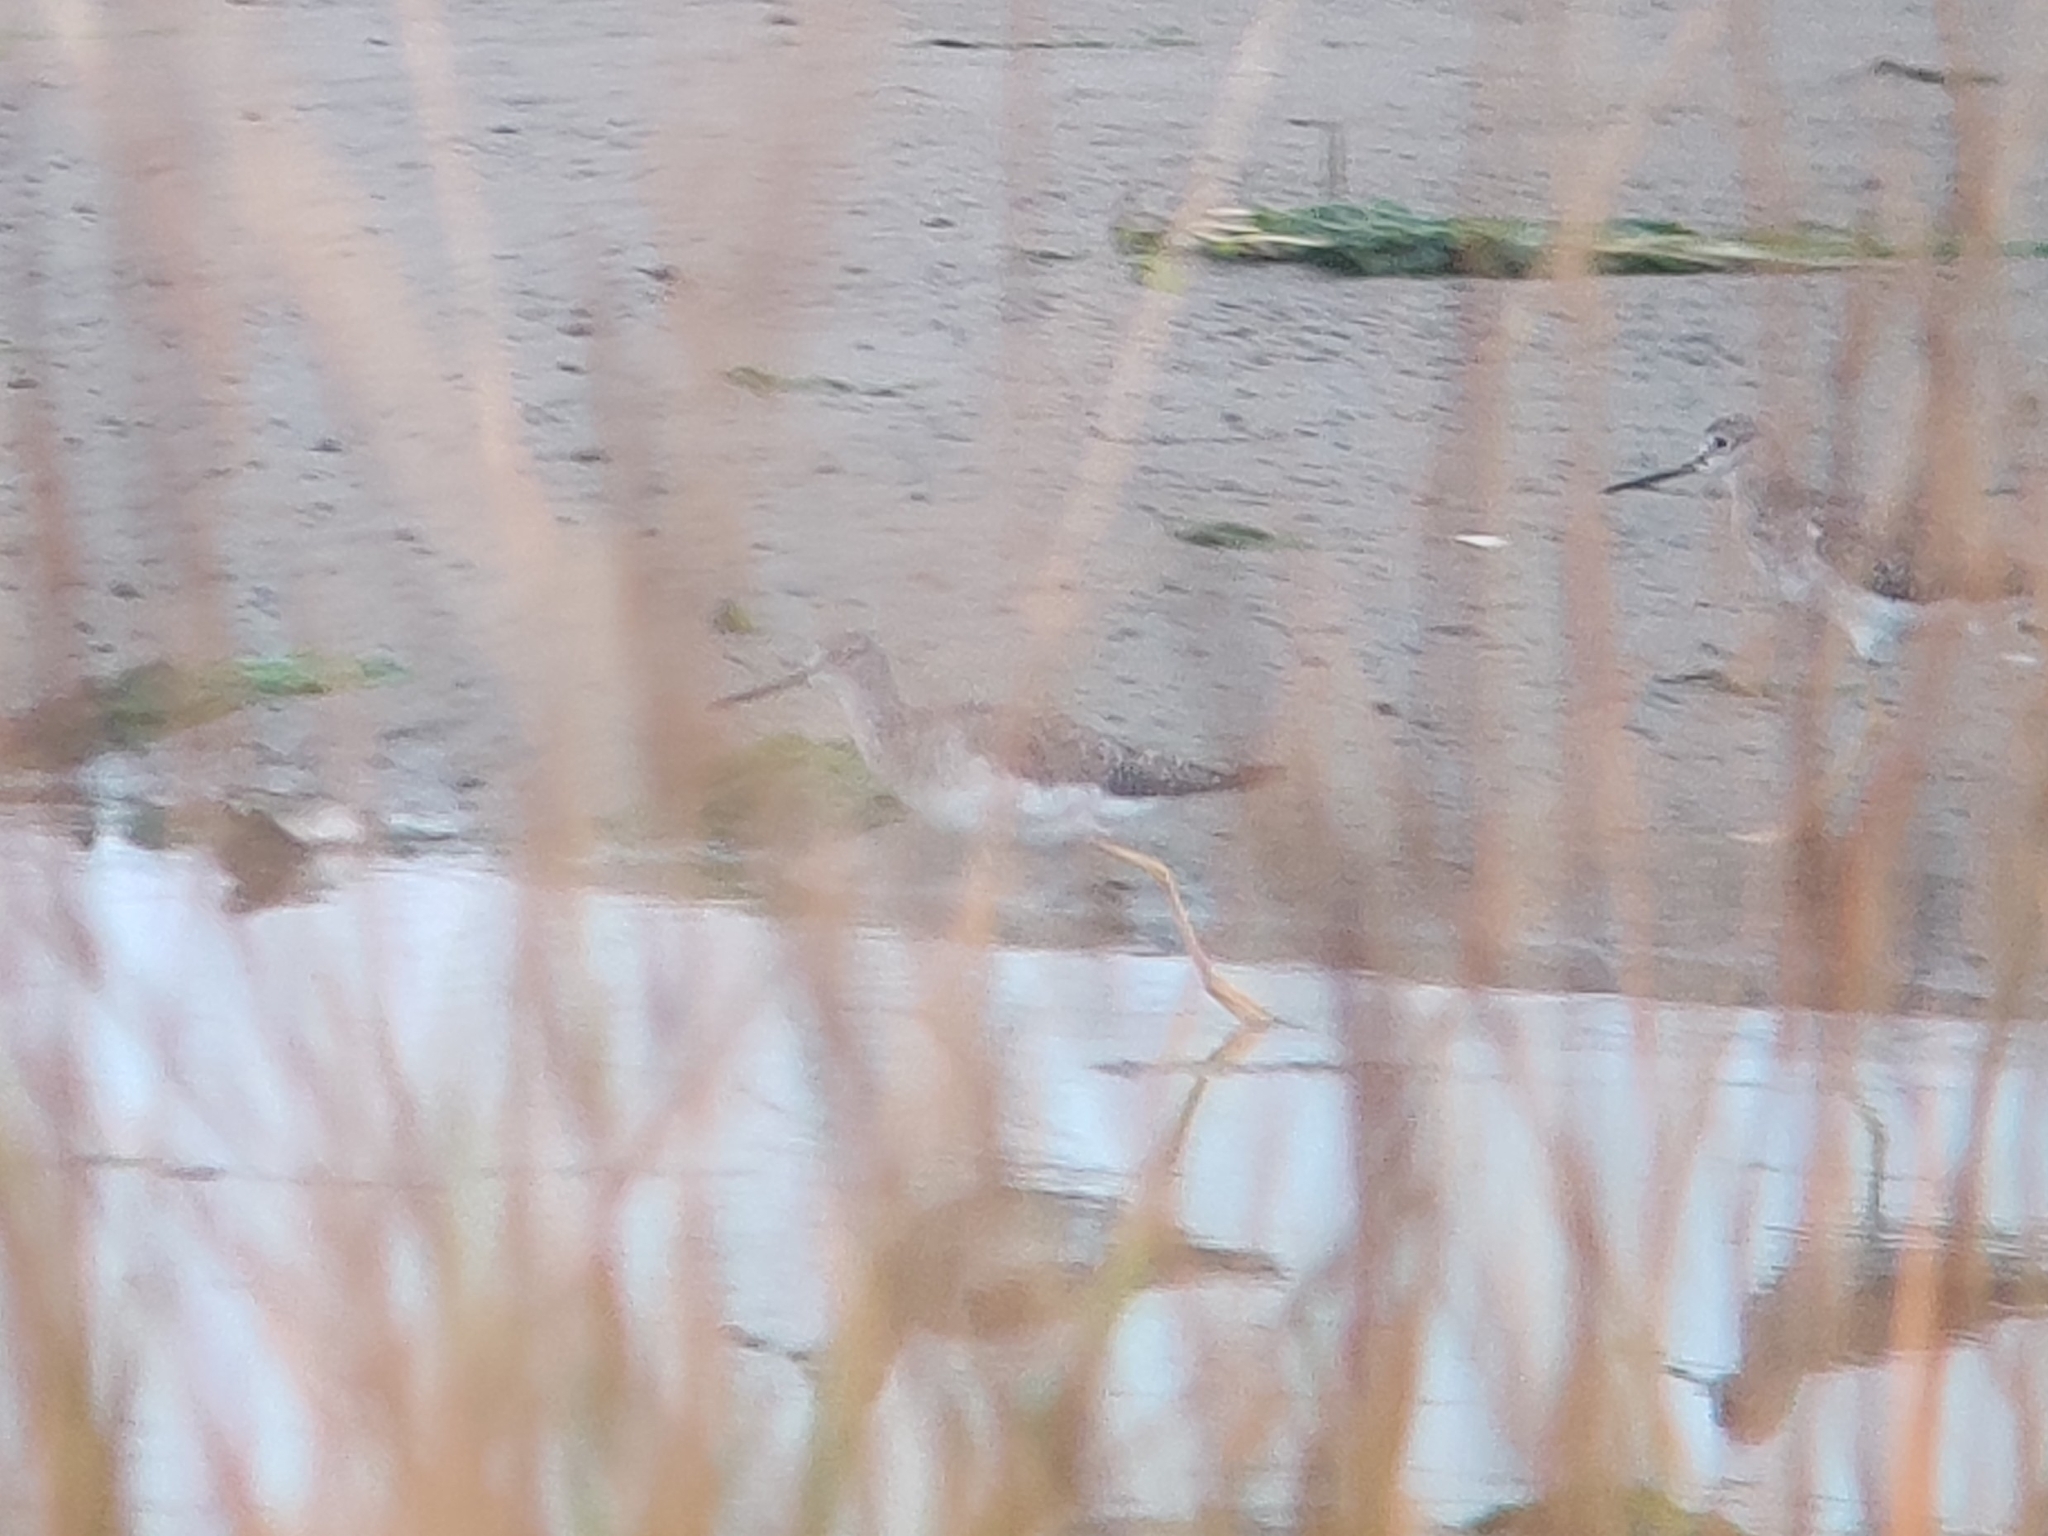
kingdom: Animalia
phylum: Chordata
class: Aves
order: Charadriiformes
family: Scolopacidae
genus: Tringa
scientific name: Tringa melanoleuca
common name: Greater yellowlegs
